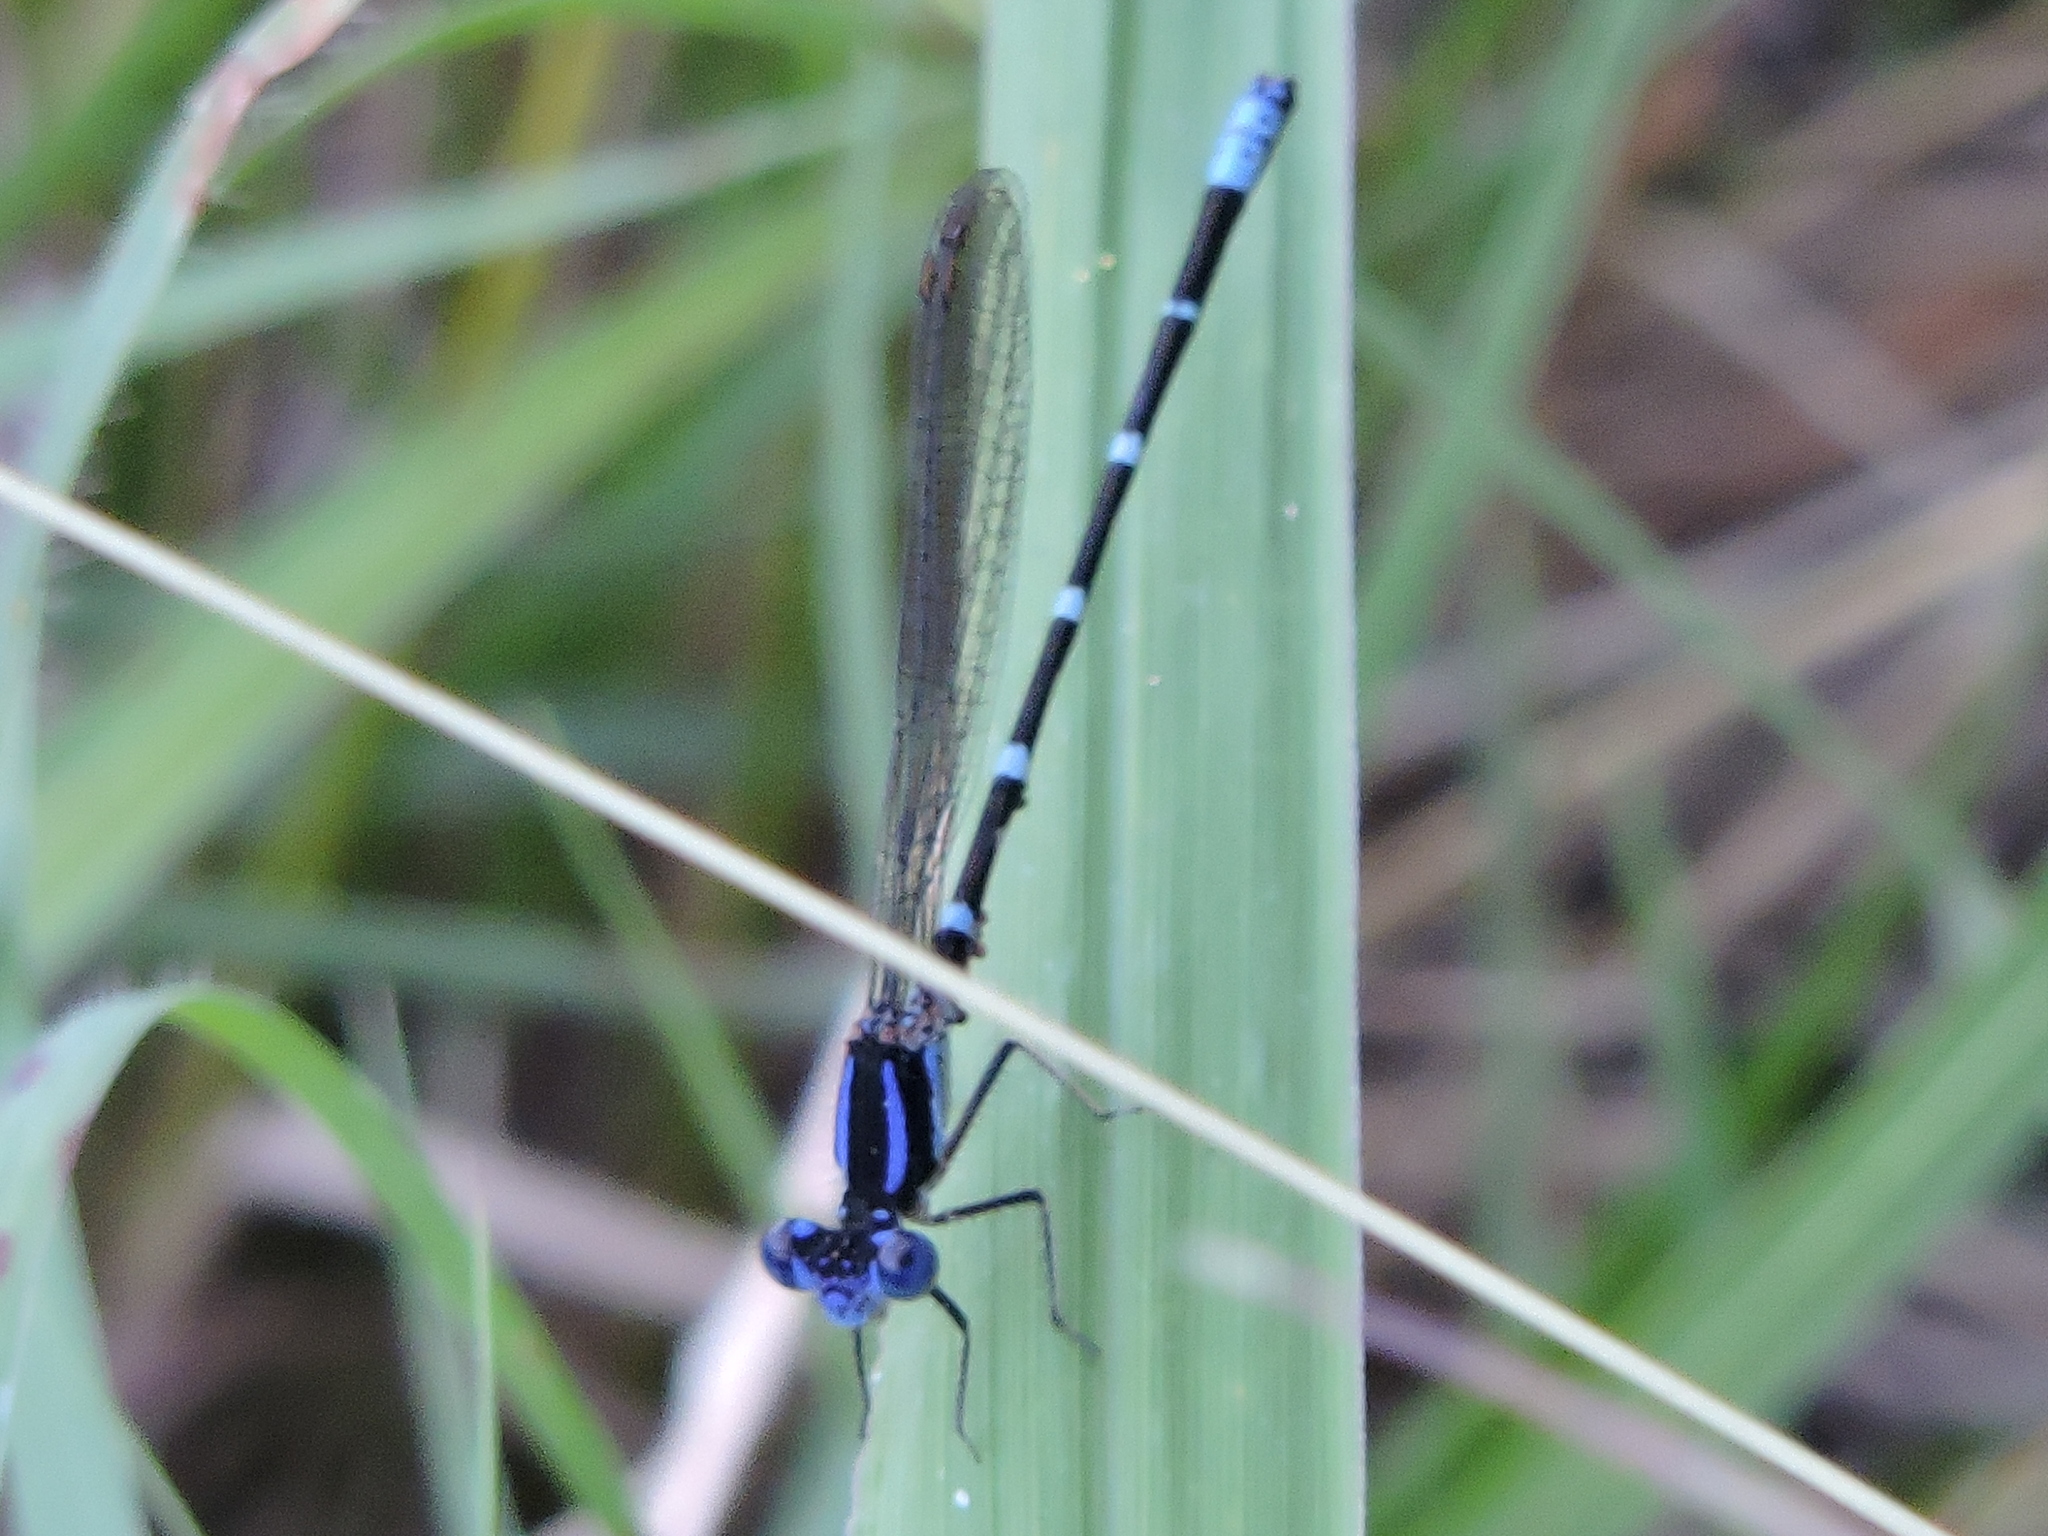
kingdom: Animalia
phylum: Arthropoda
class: Insecta
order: Odonata
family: Coenagrionidae
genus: Argia
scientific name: Argia sedula
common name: Blue-ringed dancer
